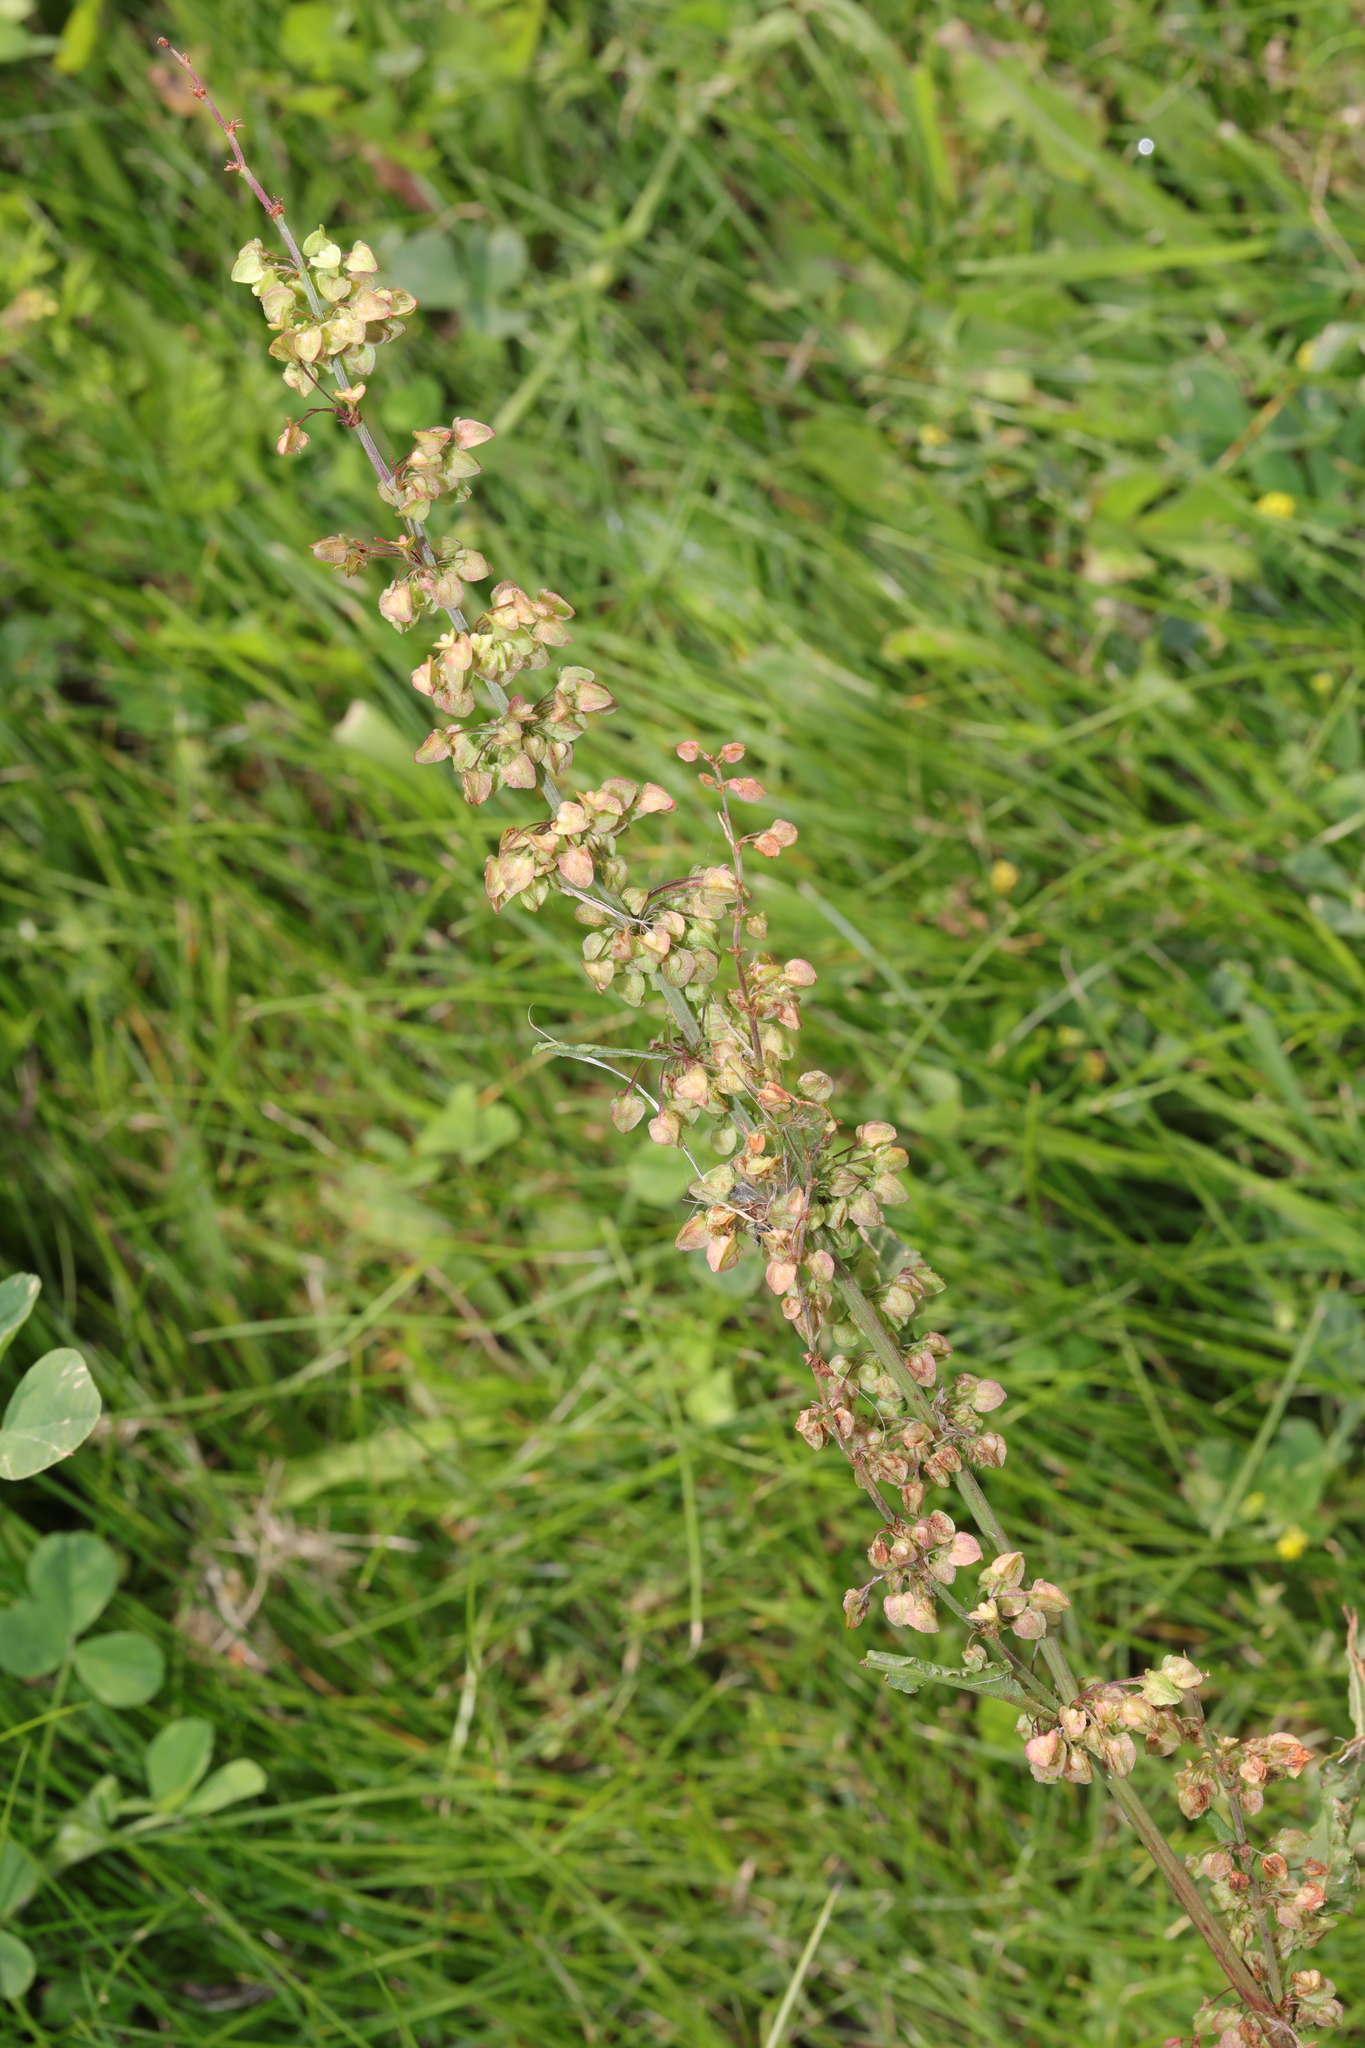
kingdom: Plantae
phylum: Tracheophyta
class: Magnoliopsida
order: Caryophyllales
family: Polygonaceae
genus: Rumex
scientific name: Rumex crispus
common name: Curled dock
